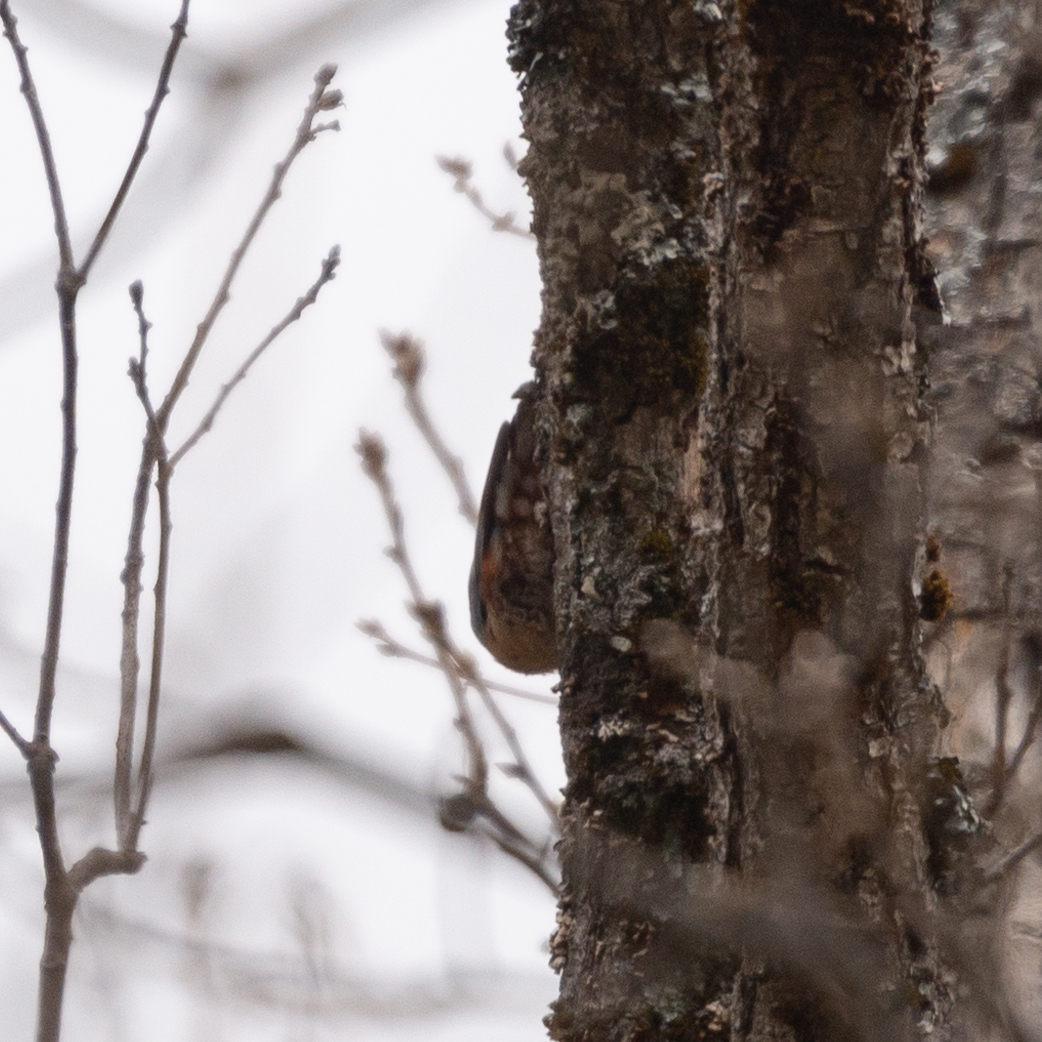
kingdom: Animalia
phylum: Chordata
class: Aves
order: Passeriformes
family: Sittidae
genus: Sitta
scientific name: Sitta europaea
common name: Eurasian nuthatch
